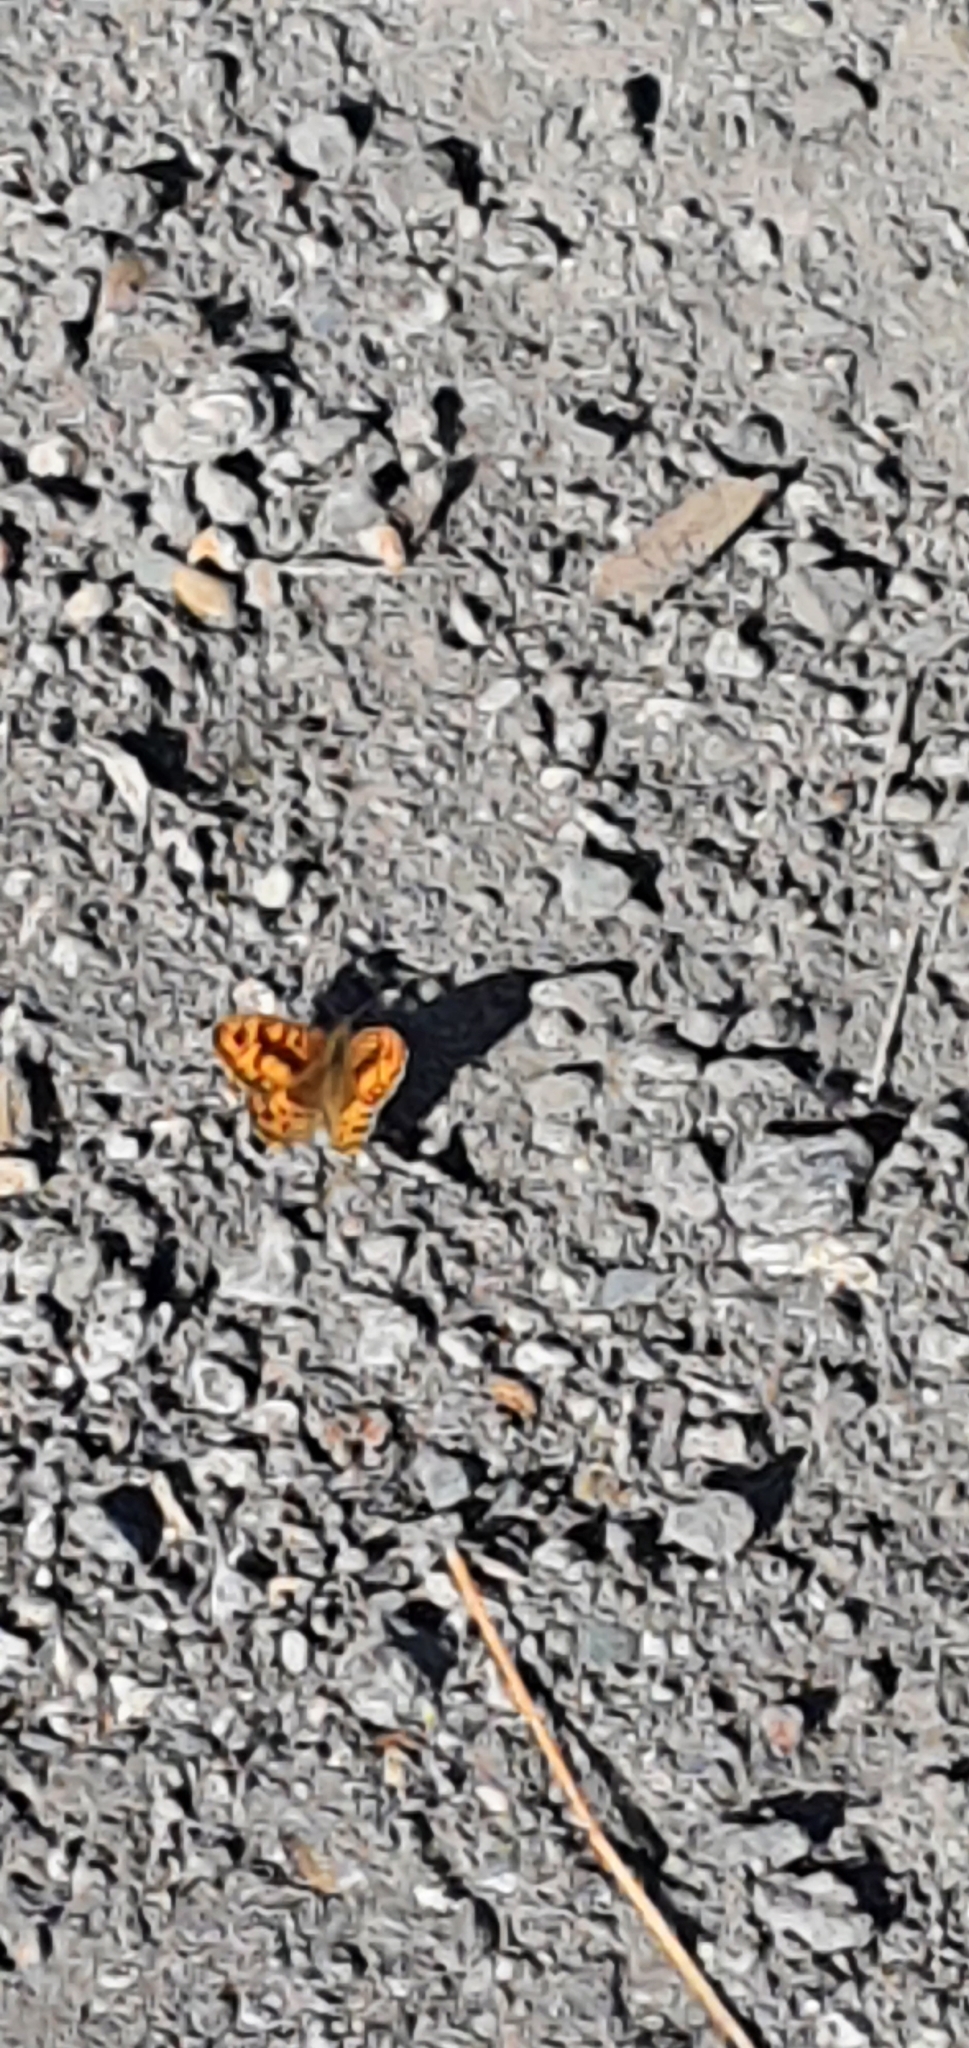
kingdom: Animalia
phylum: Arthropoda
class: Insecta
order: Lepidoptera
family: Nymphalidae
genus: Pararge
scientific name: Pararge Lasiommata megera
